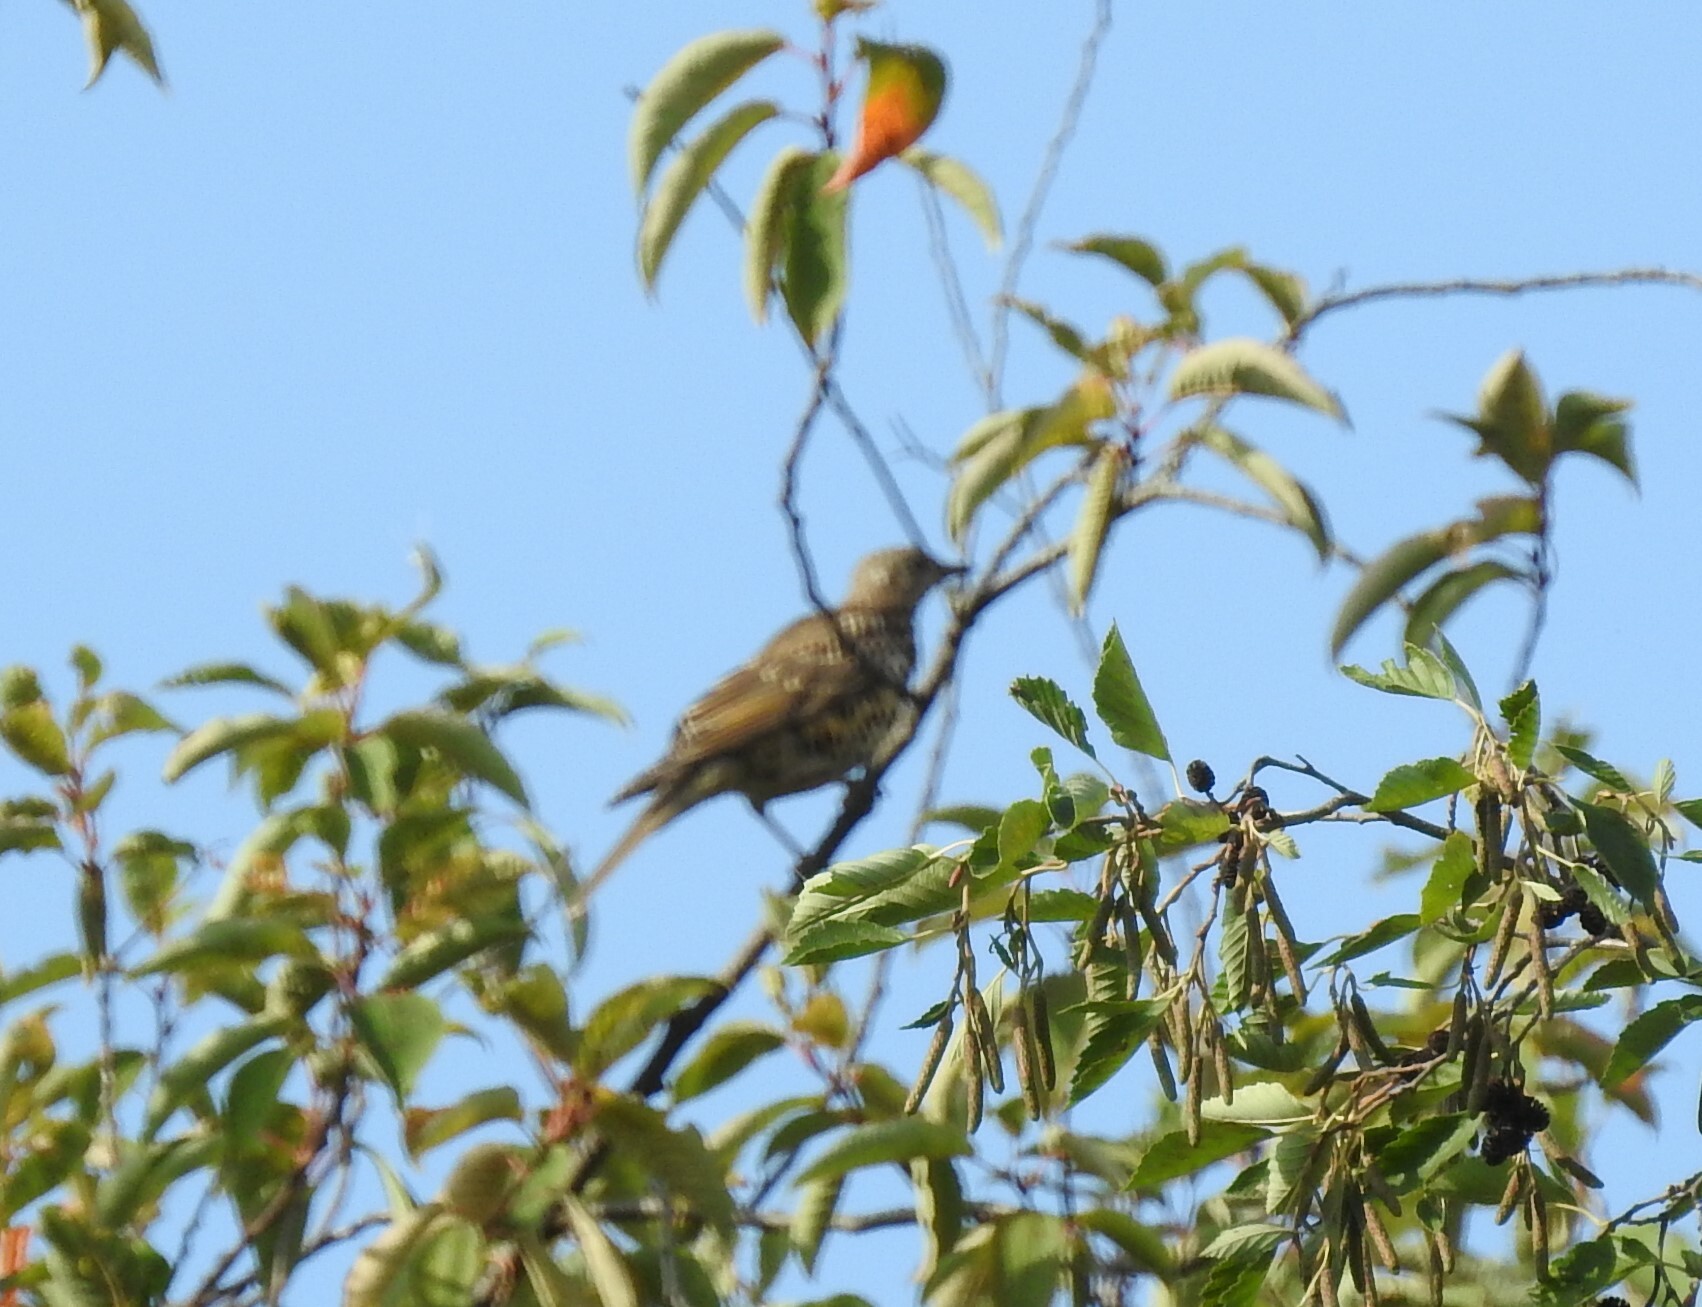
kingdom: Animalia
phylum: Chordata
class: Aves
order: Passeriformes
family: Turdidae
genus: Turdus
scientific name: Turdus viscivorus
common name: Mistle thrush
